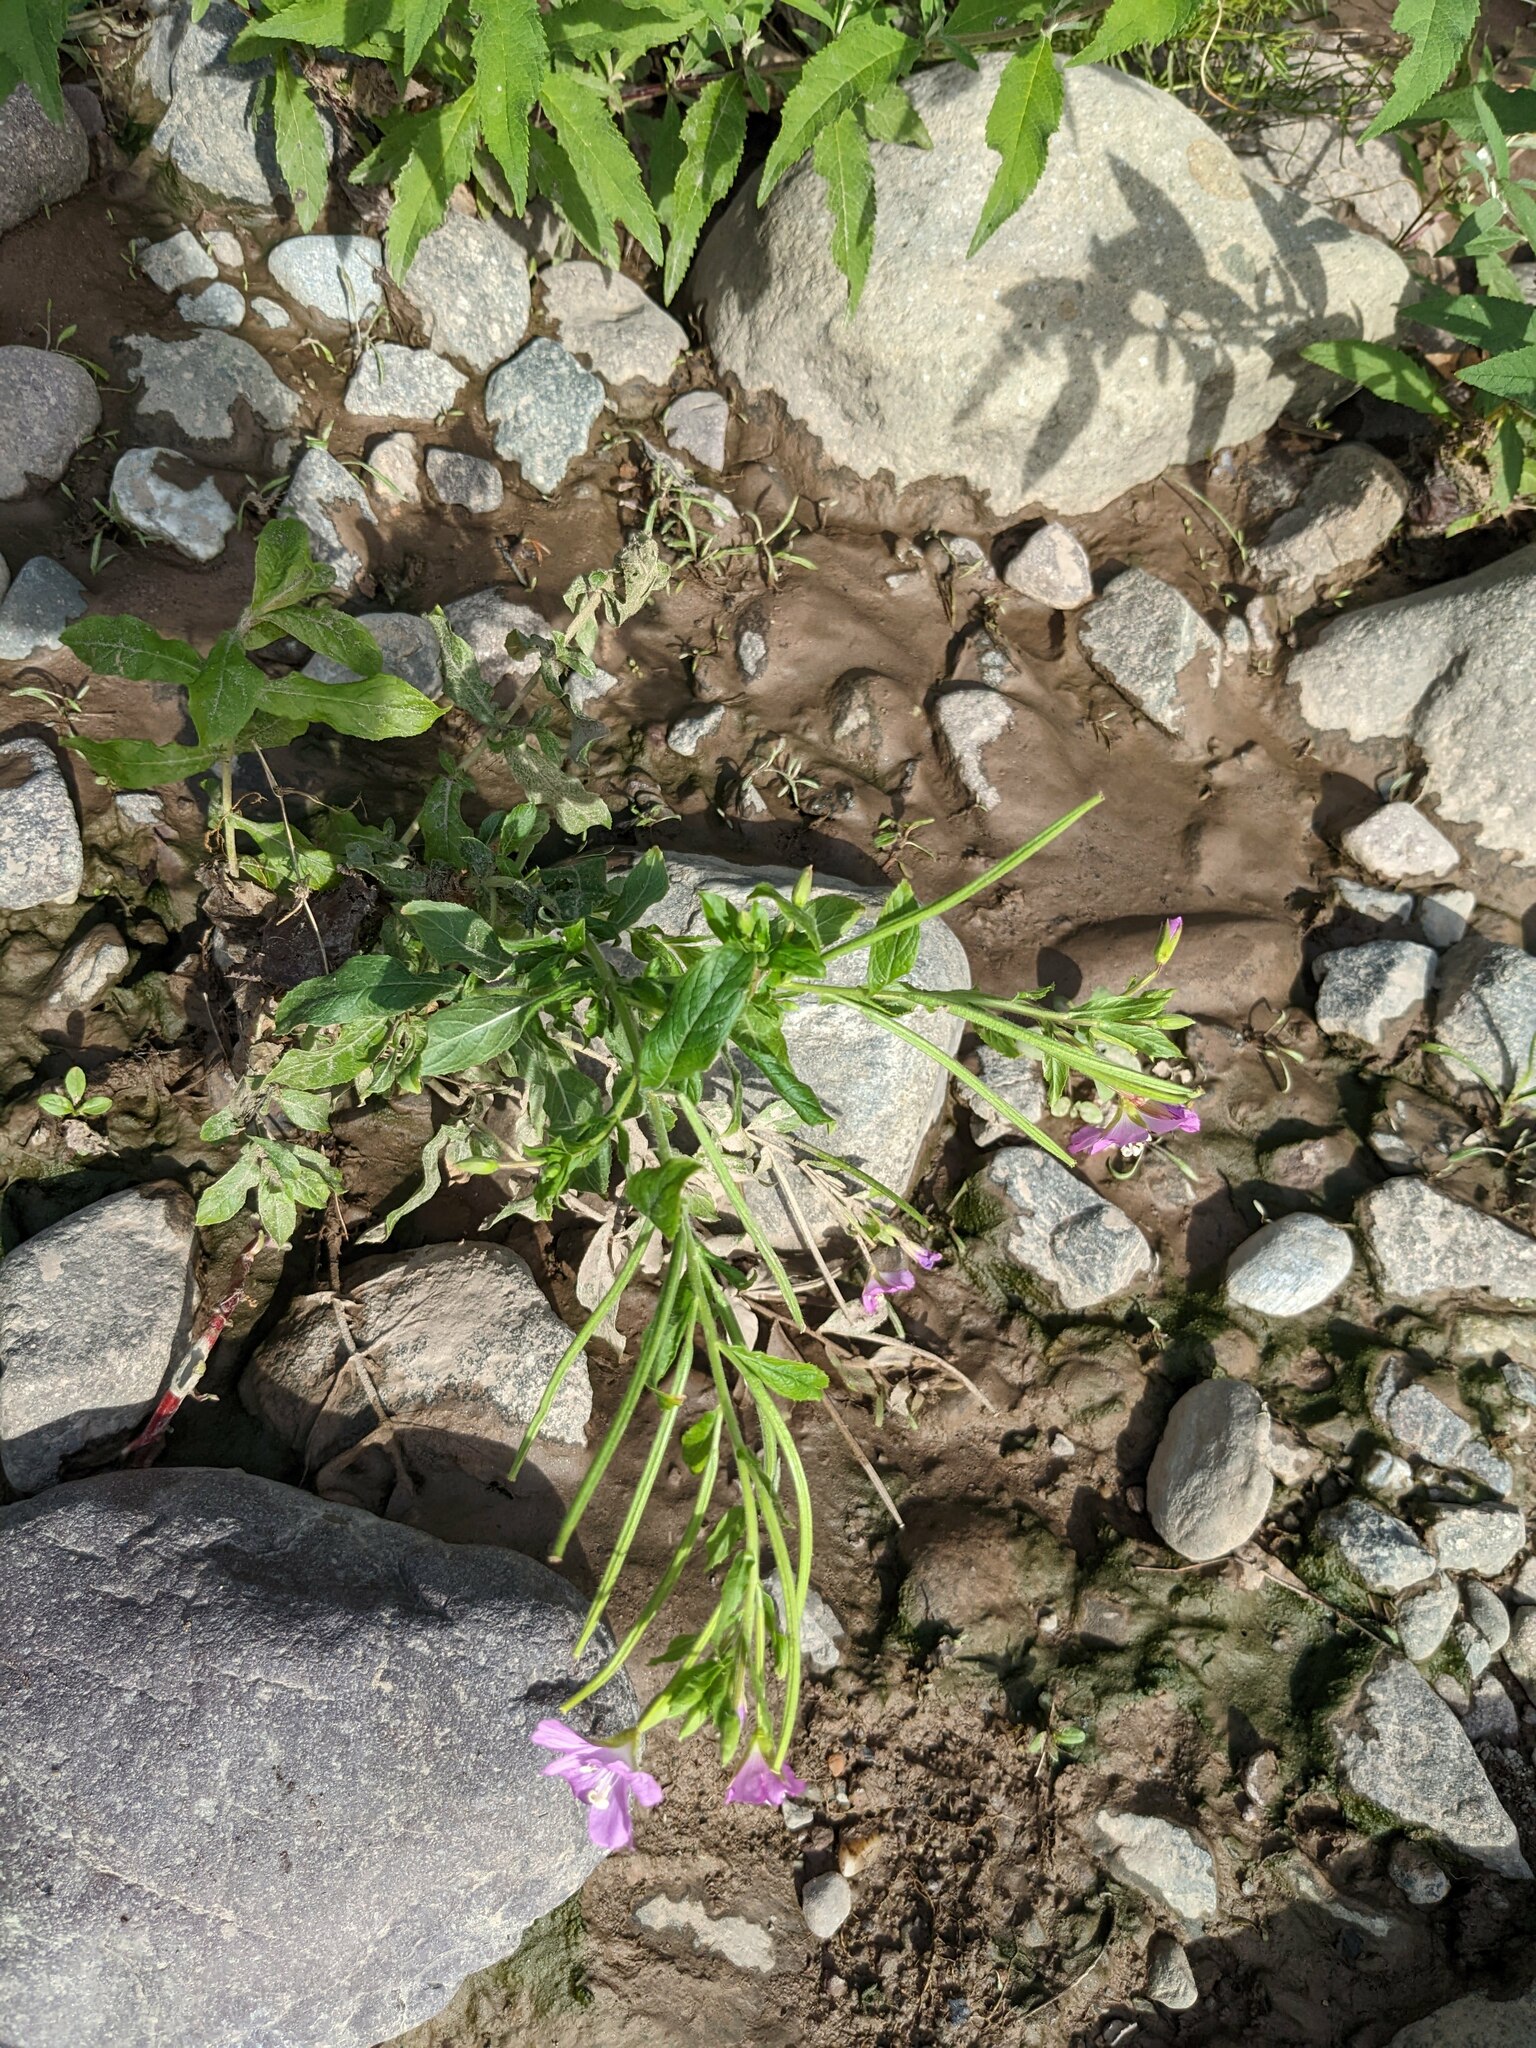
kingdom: Plantae
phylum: Tracheophyta
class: Magnoliopsida
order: Myrtales
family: Onagraceae
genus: Epilobium
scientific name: Epilobium hirsutum
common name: Great willowherb
